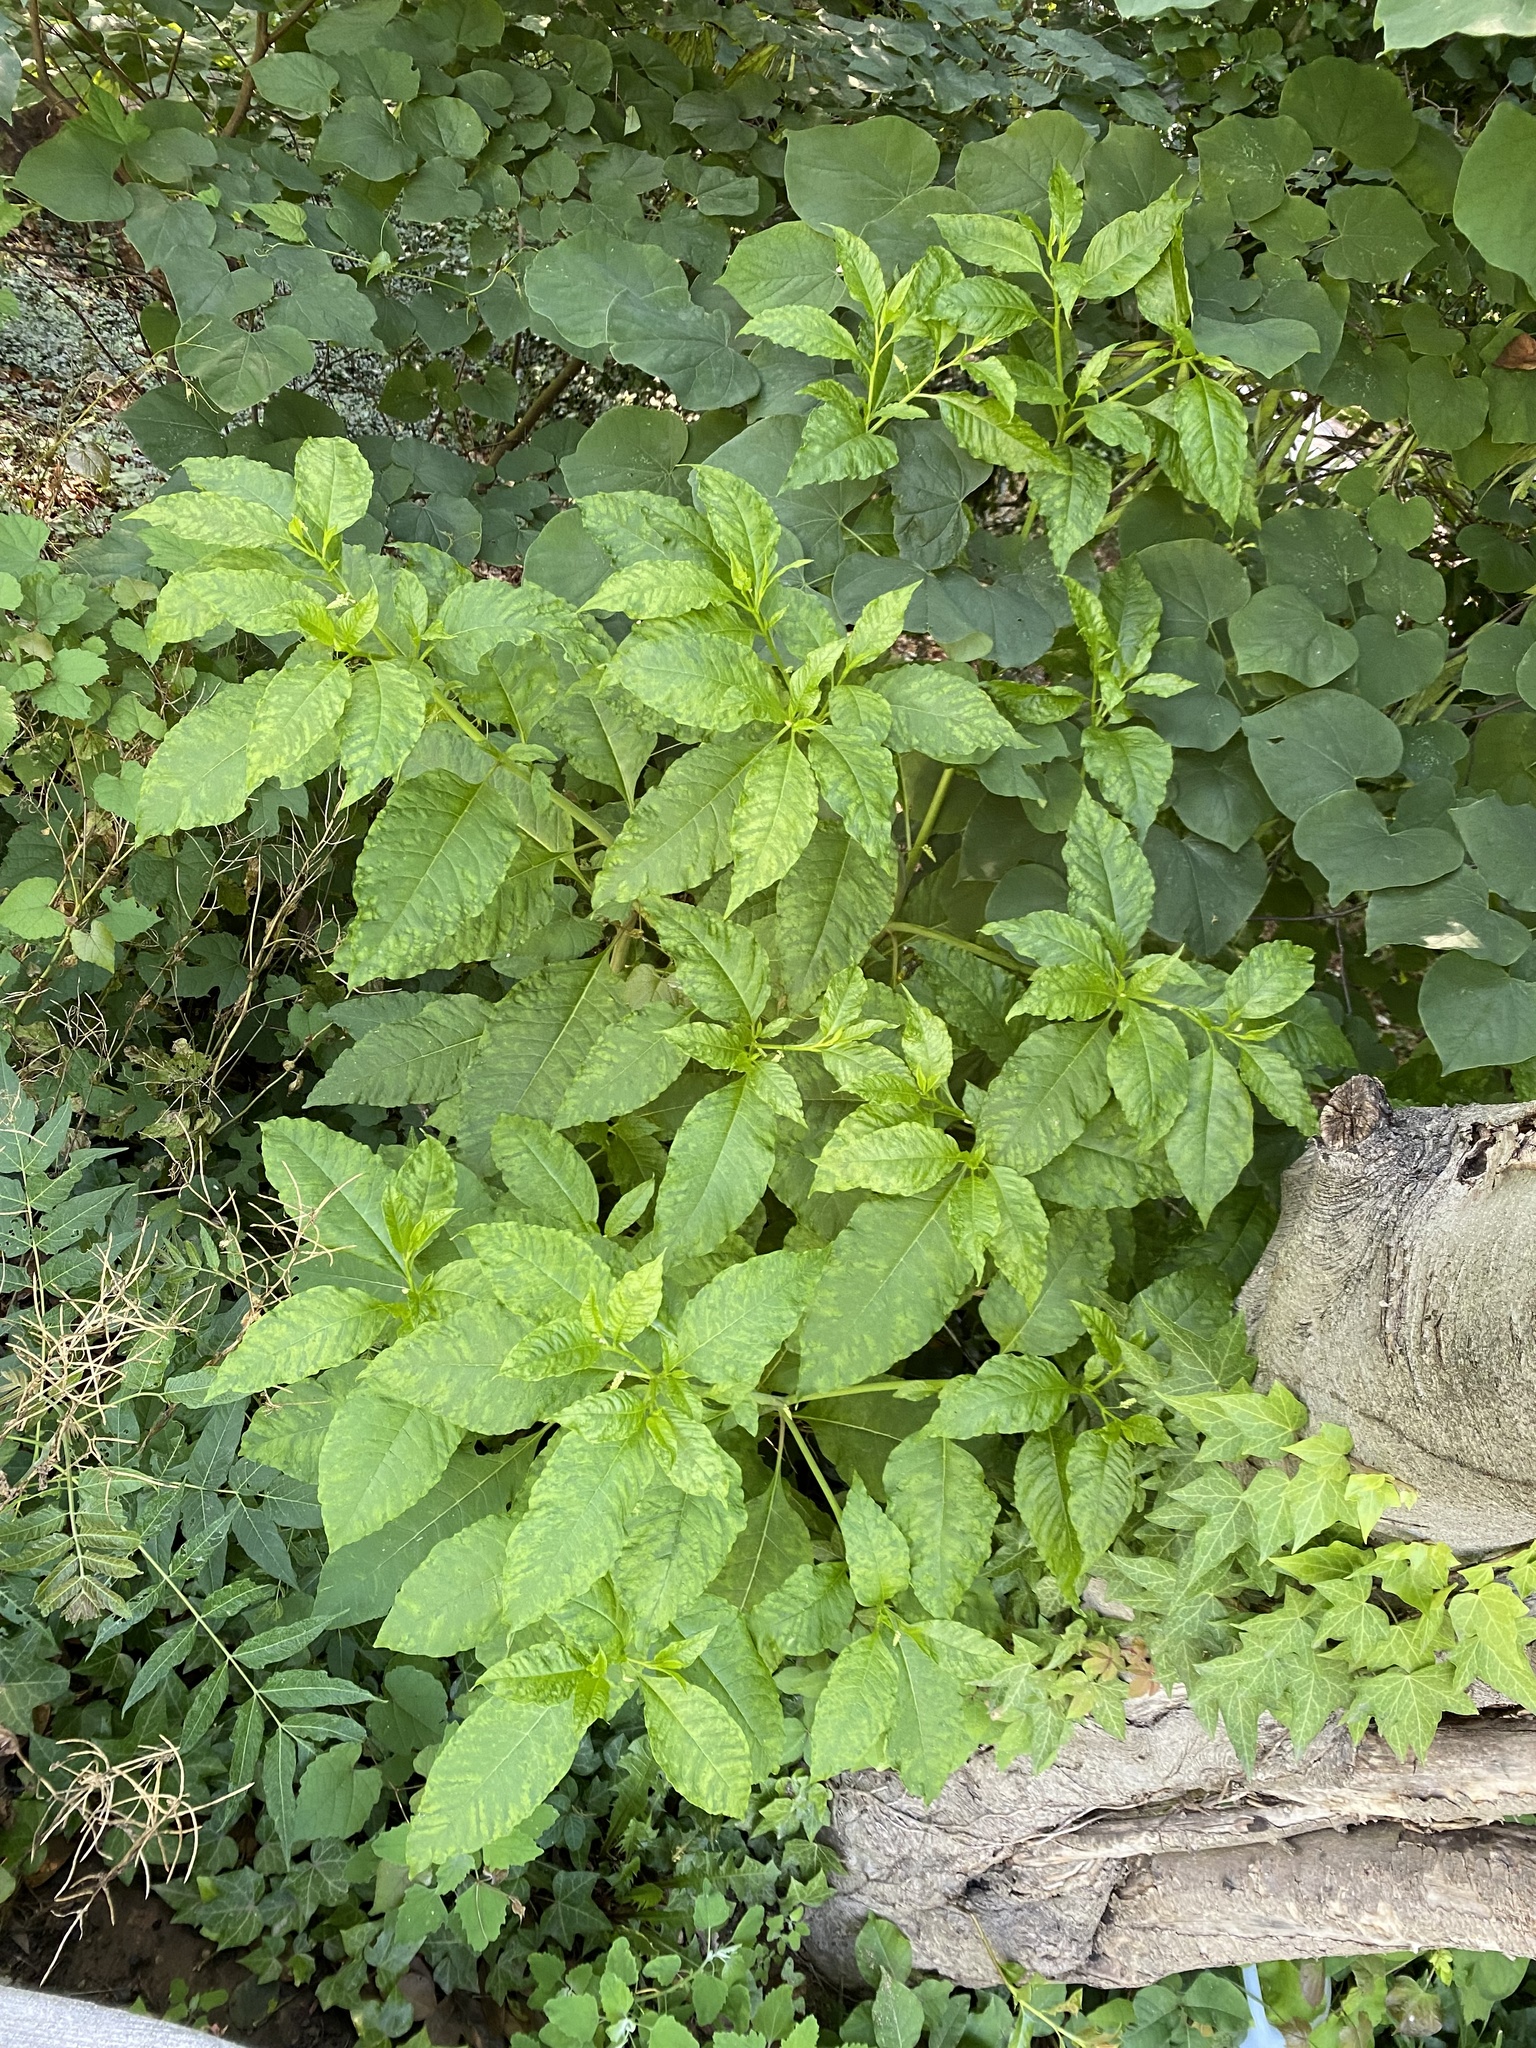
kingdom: Plantae
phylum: Tracheophyta
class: Magnoliopsida
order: Caryophyllales
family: Phytolaccaceae
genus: Phytolacca
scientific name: Phytolacca americana
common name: American pokeweed
